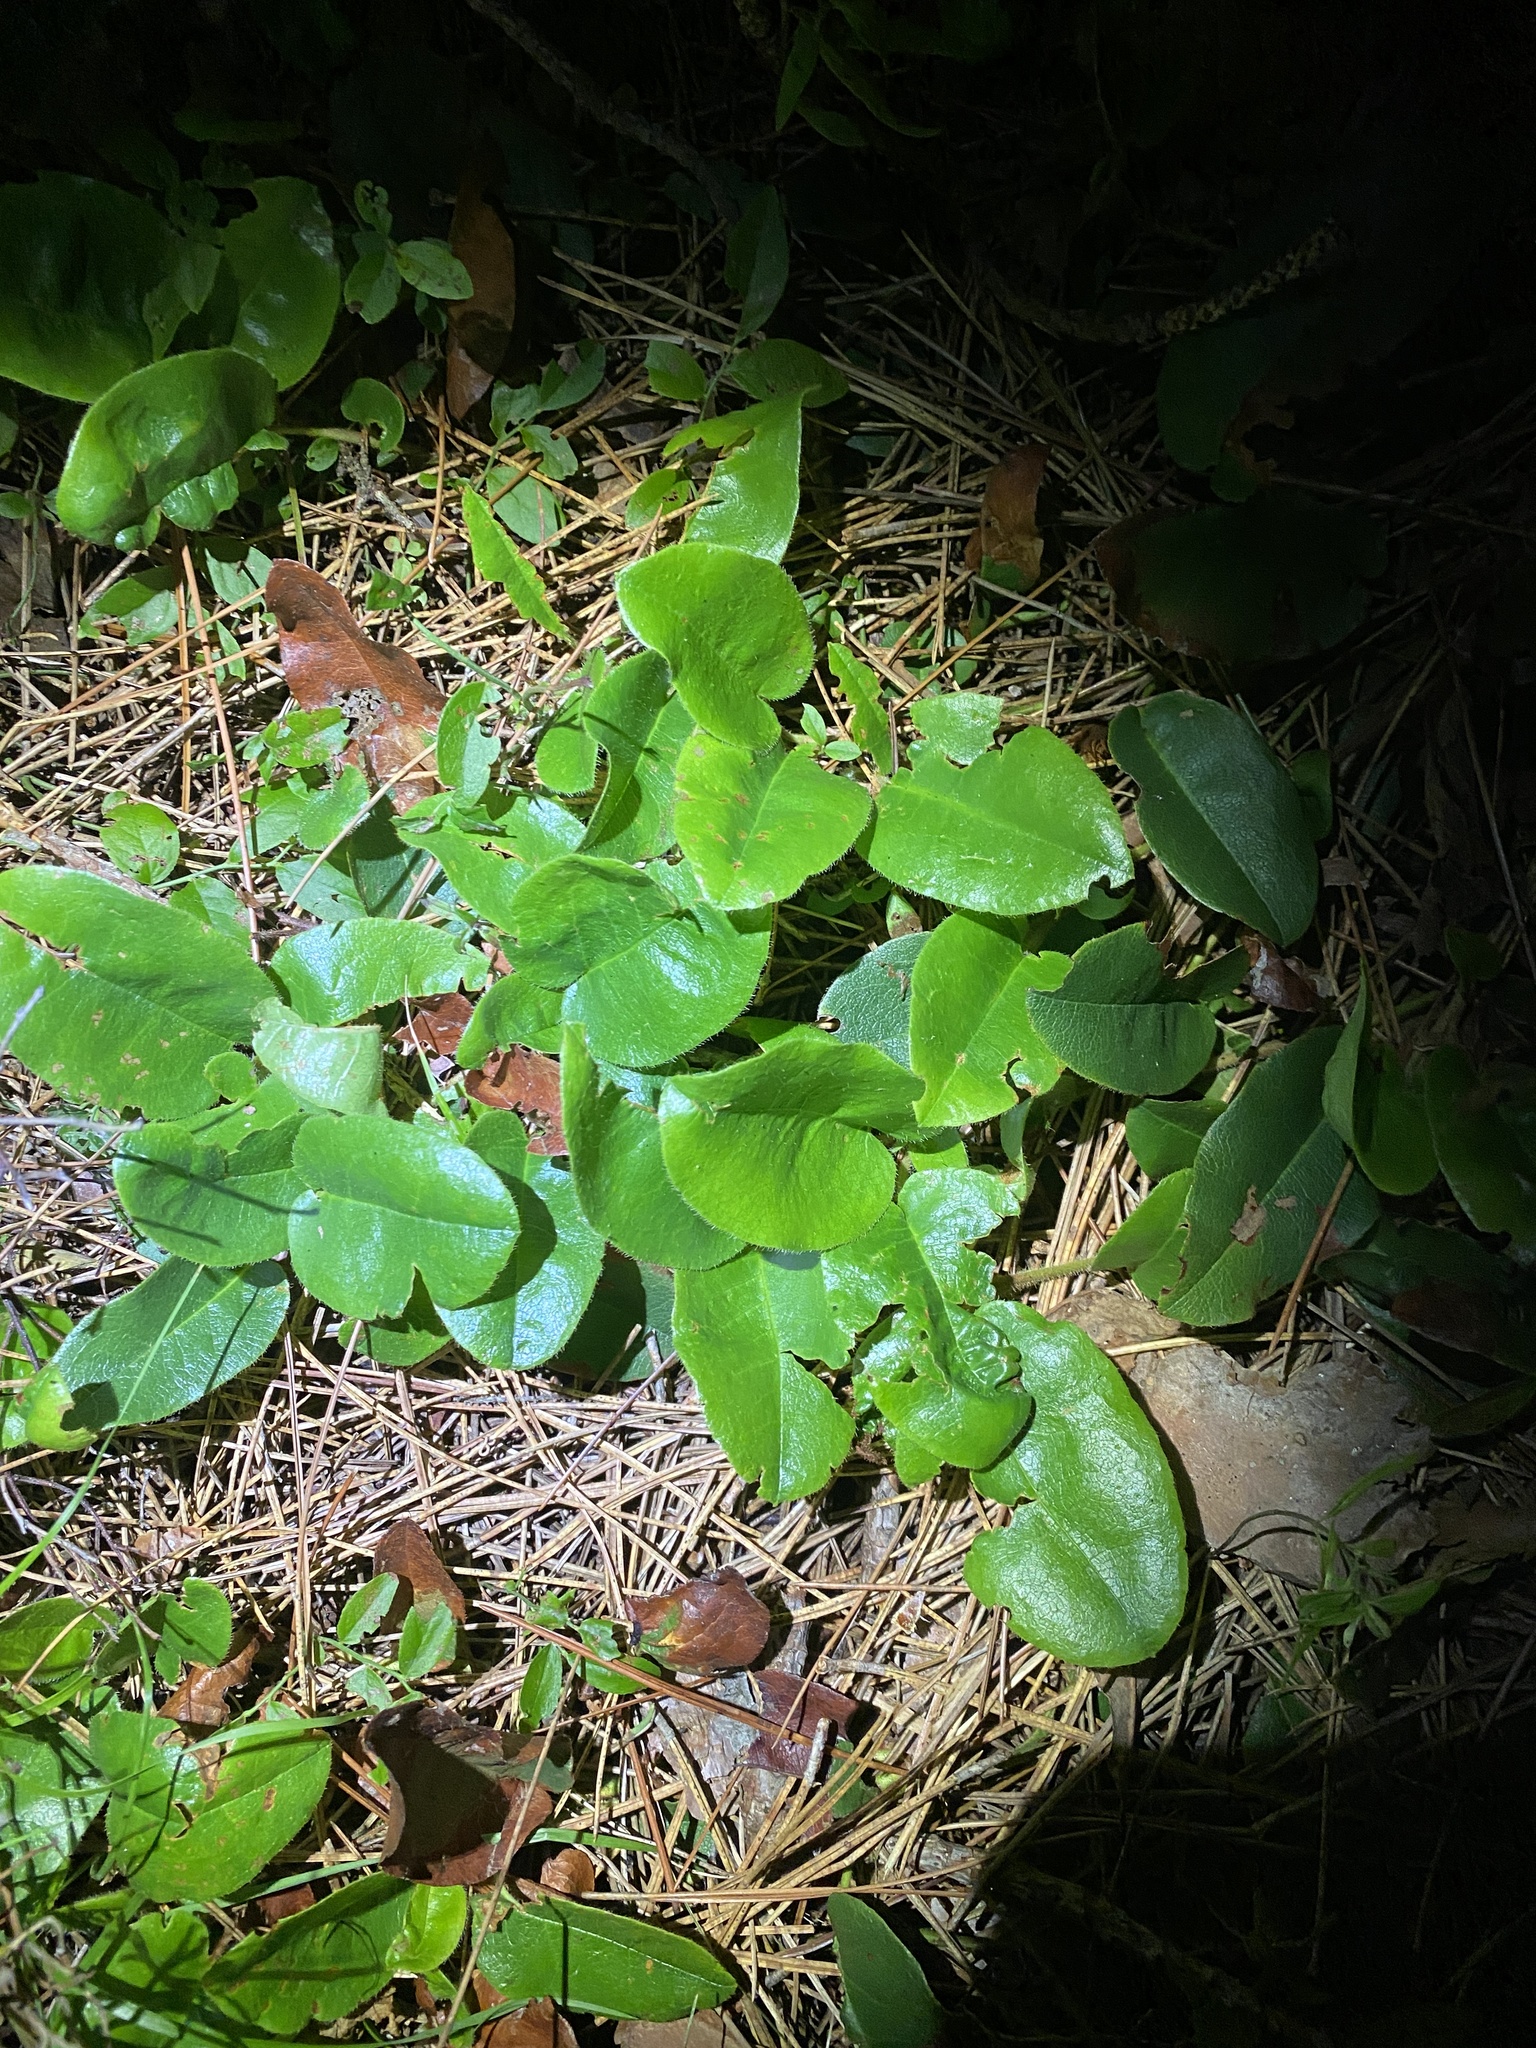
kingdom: Plantae
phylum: Tracheophyta
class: Magnoliopsida
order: Ericales
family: Ericaceae
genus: Epigaea
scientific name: Epigaea repens
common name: Gravelroot
